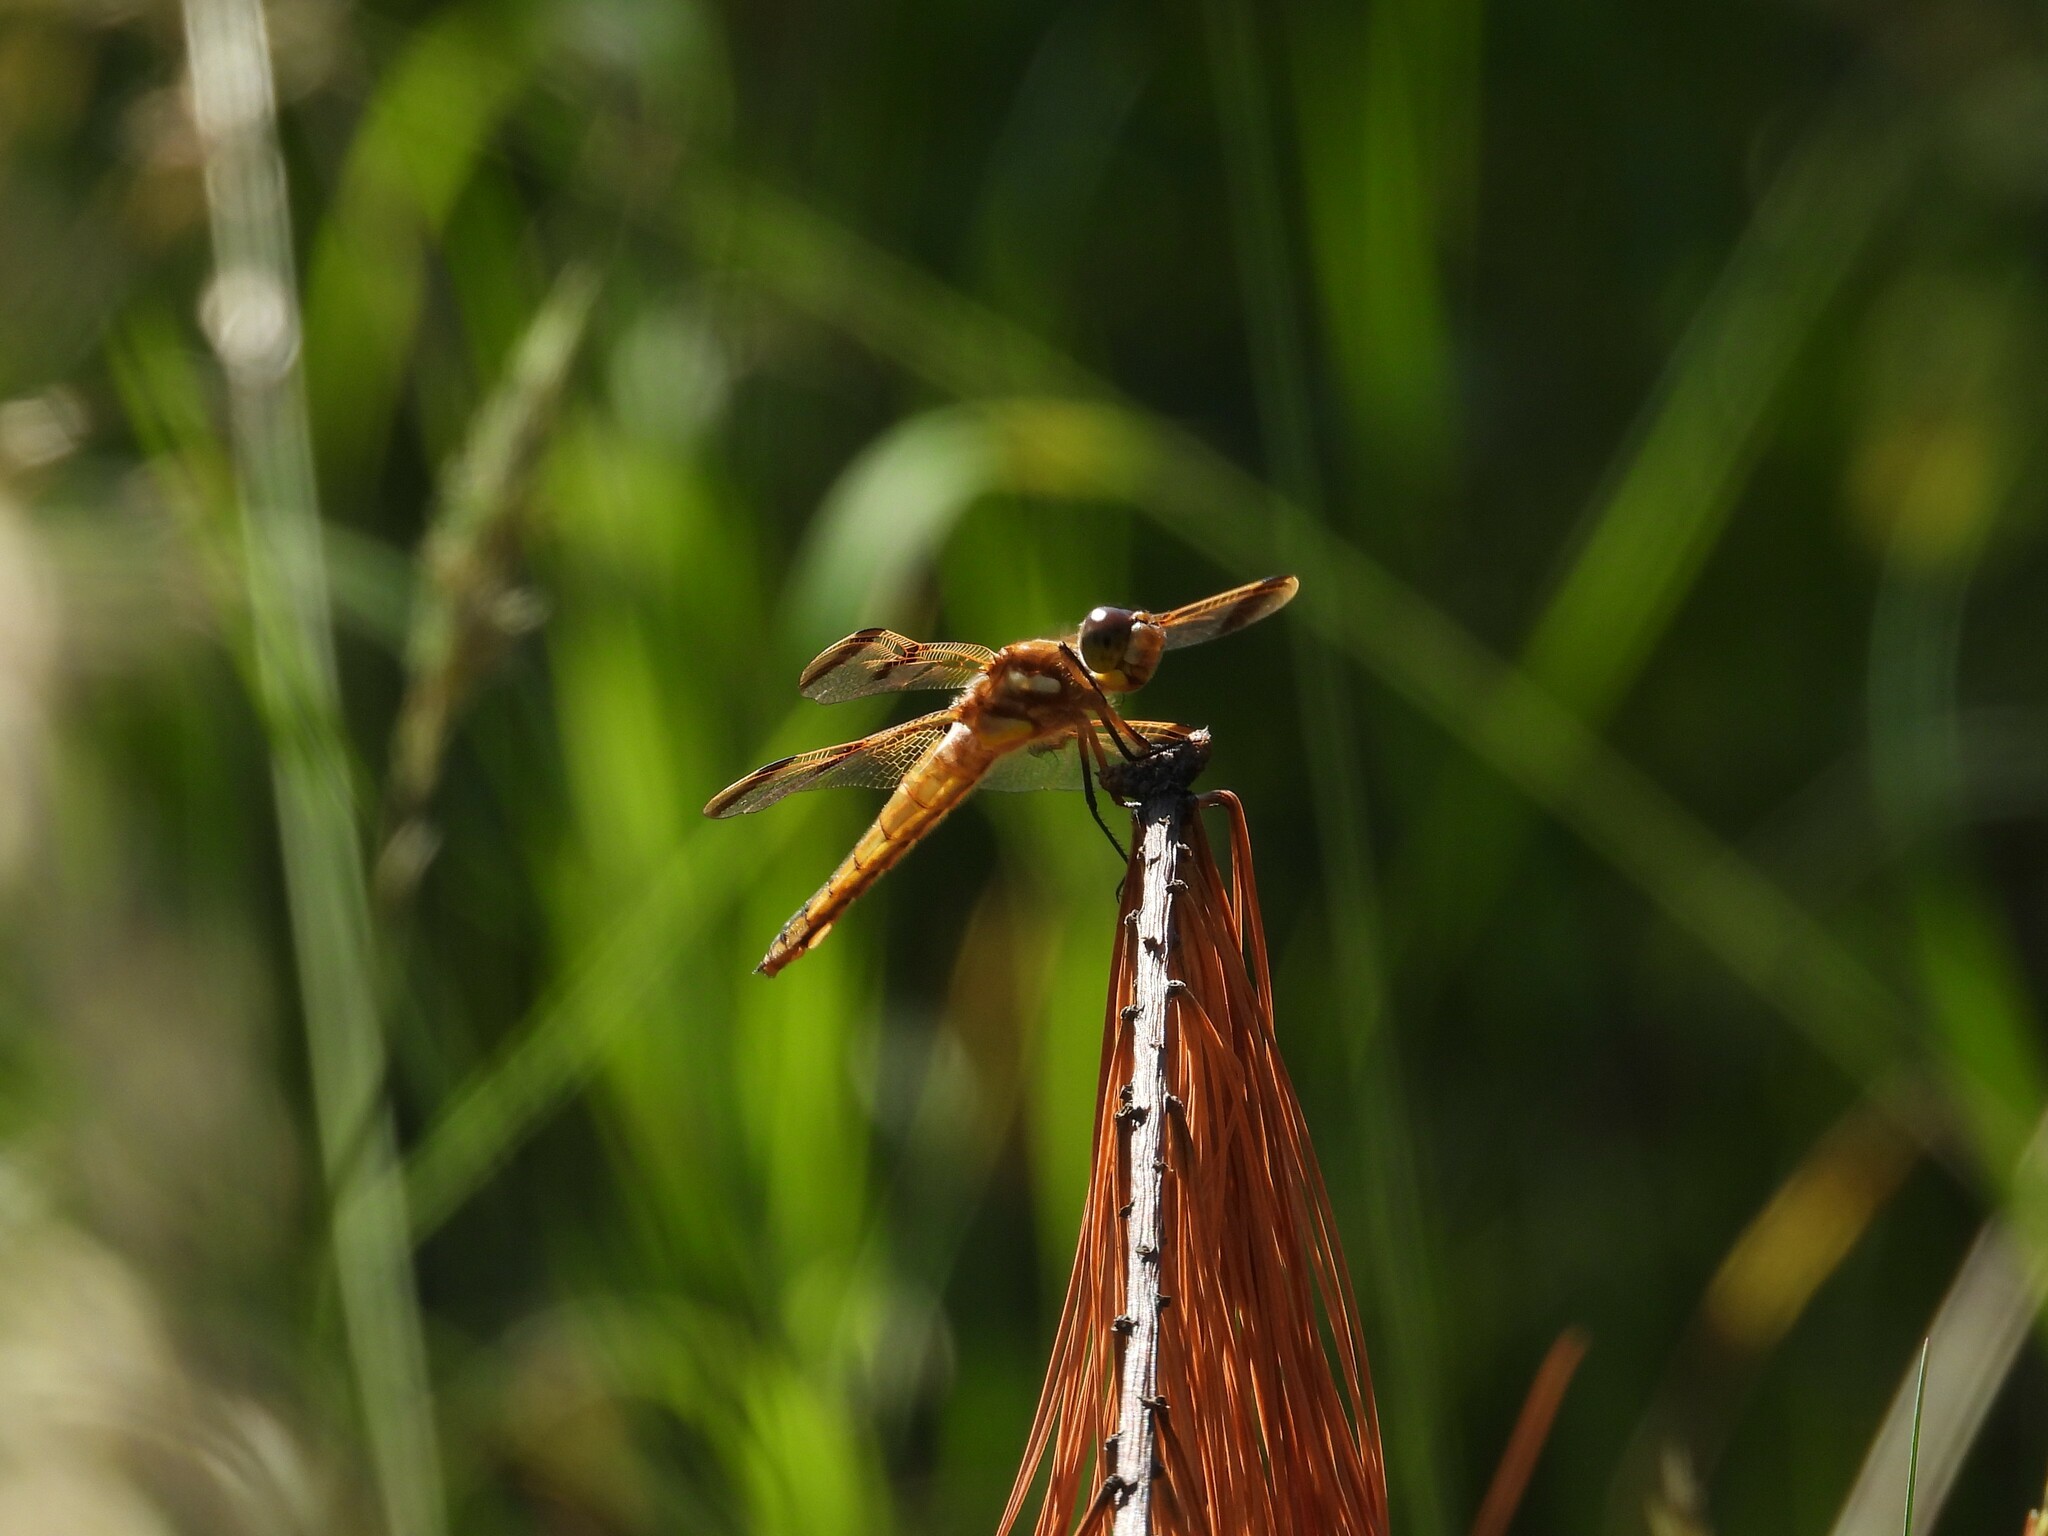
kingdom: Animalia
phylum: Arthropoda
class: Insecta
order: Odonata
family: Libellulidae
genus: Libellula
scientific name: Libellula semifasciata
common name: Painted skimmer
